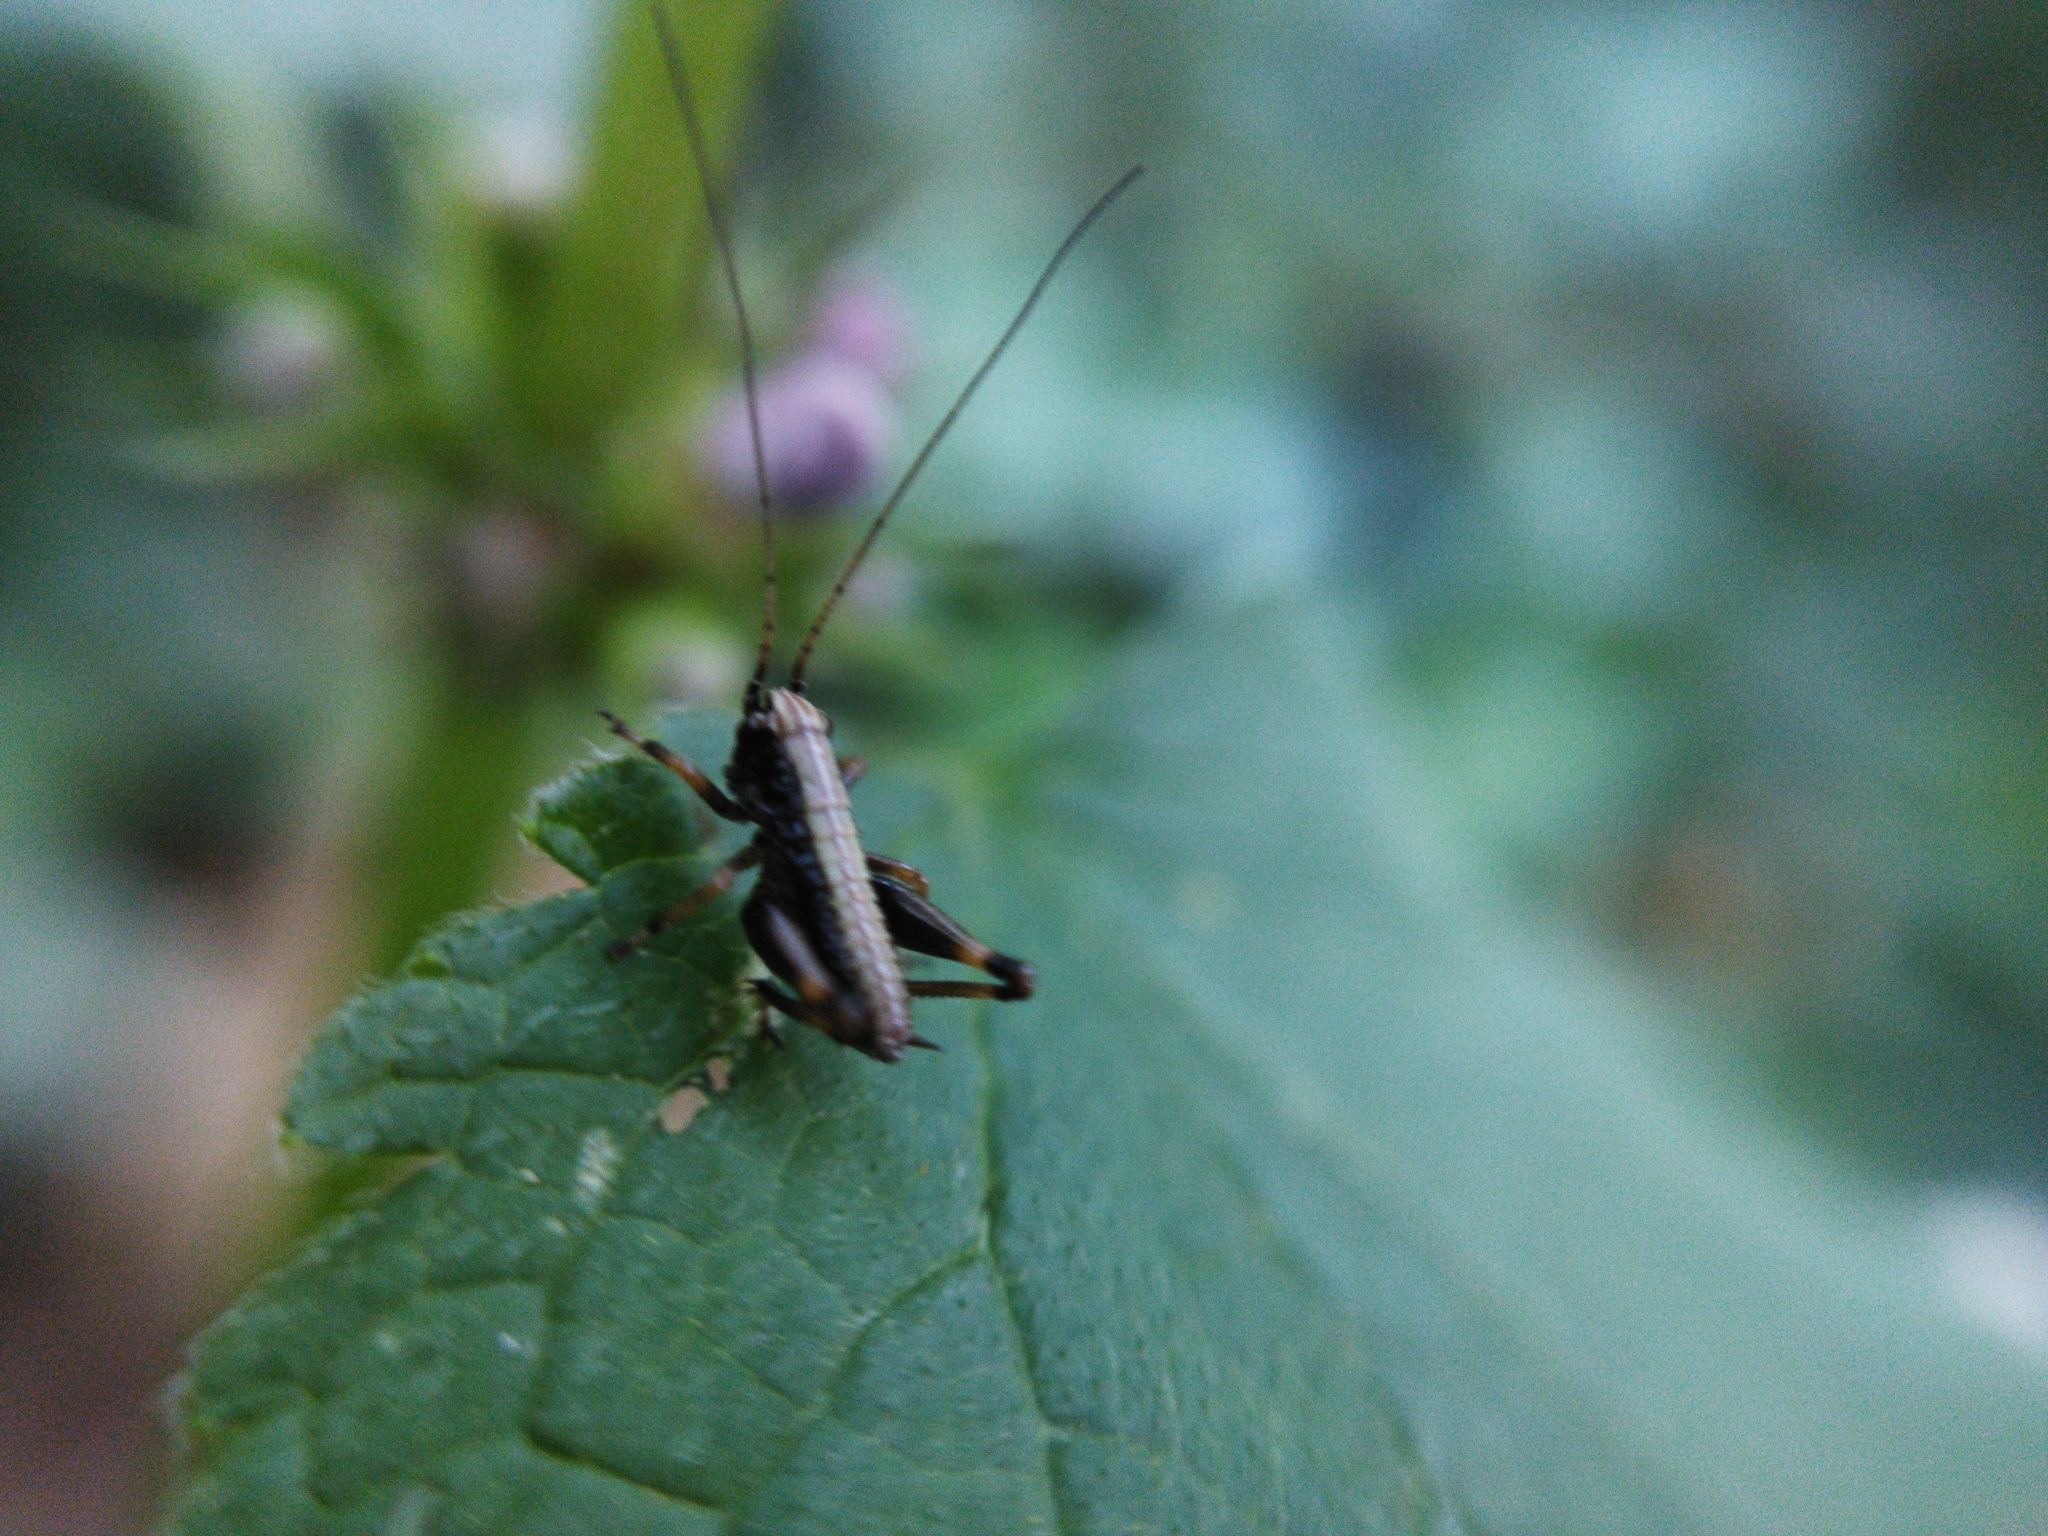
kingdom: Animalia
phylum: Arthropoda
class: Insecta
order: Orthoptera
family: Tettigoniidae
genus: Pholidoptera
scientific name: Pholidoptera griseoaptera
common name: Dark bush-cricket
